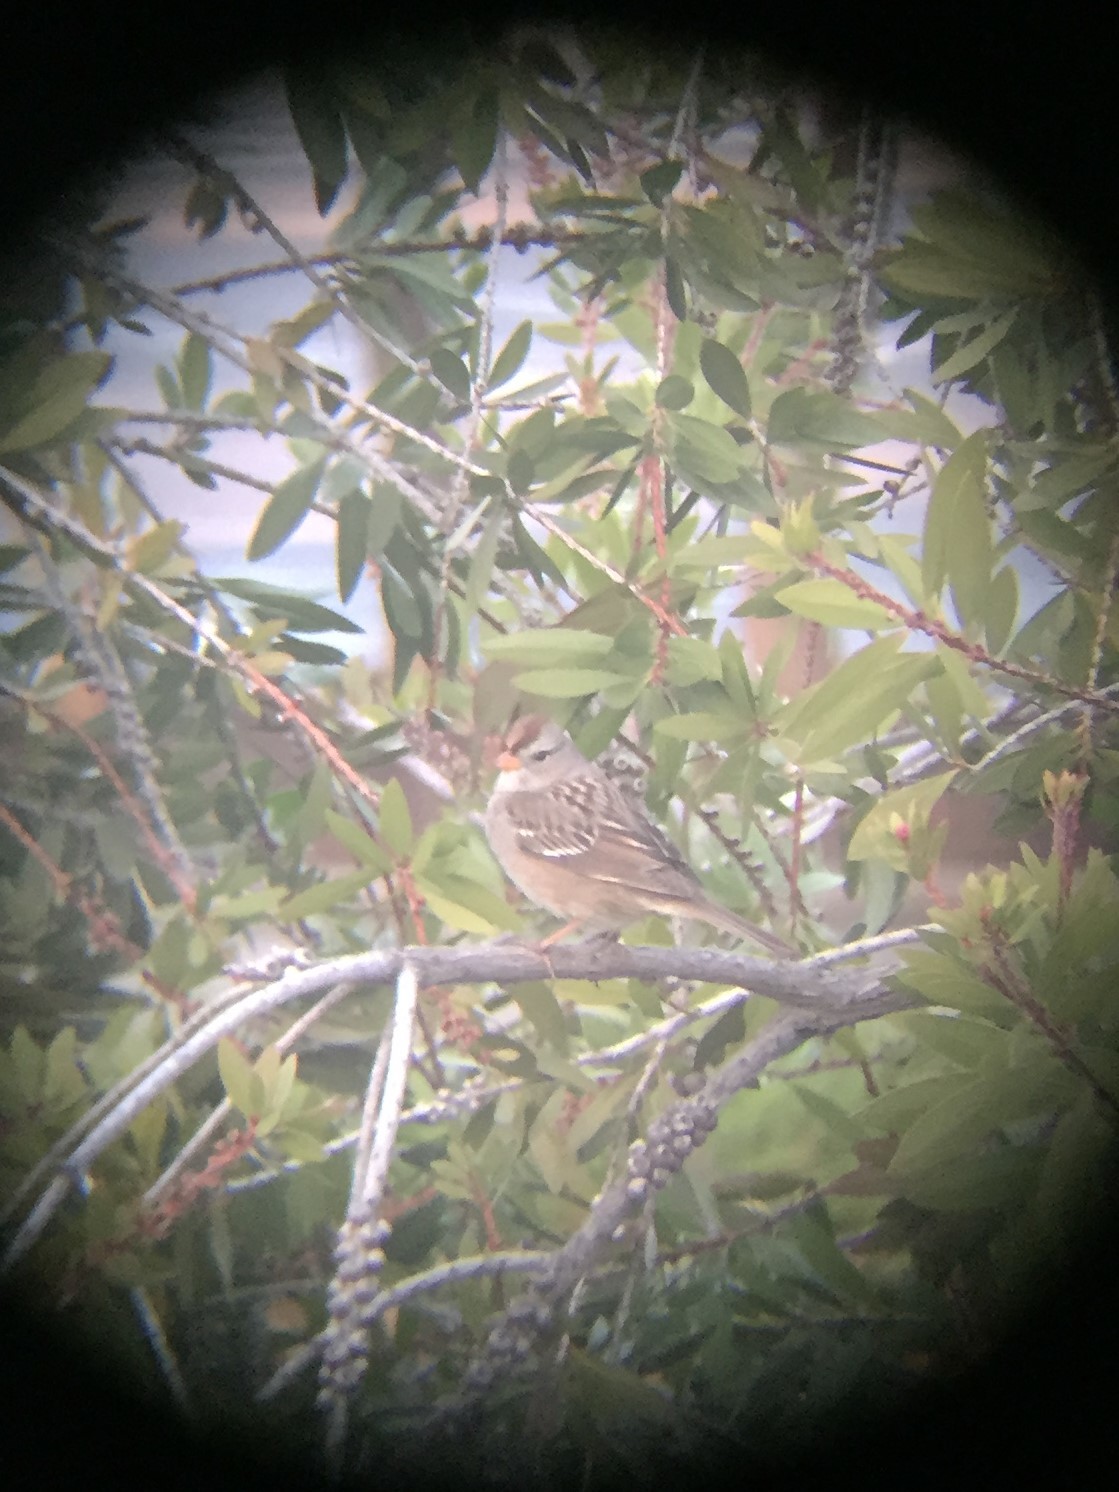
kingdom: Animalia
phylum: Chordata
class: Aves
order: Passeriformes
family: Passerellidae
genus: Zonotrichia
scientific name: Zonotrichia leucophrys
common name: White-crowned sparrow
